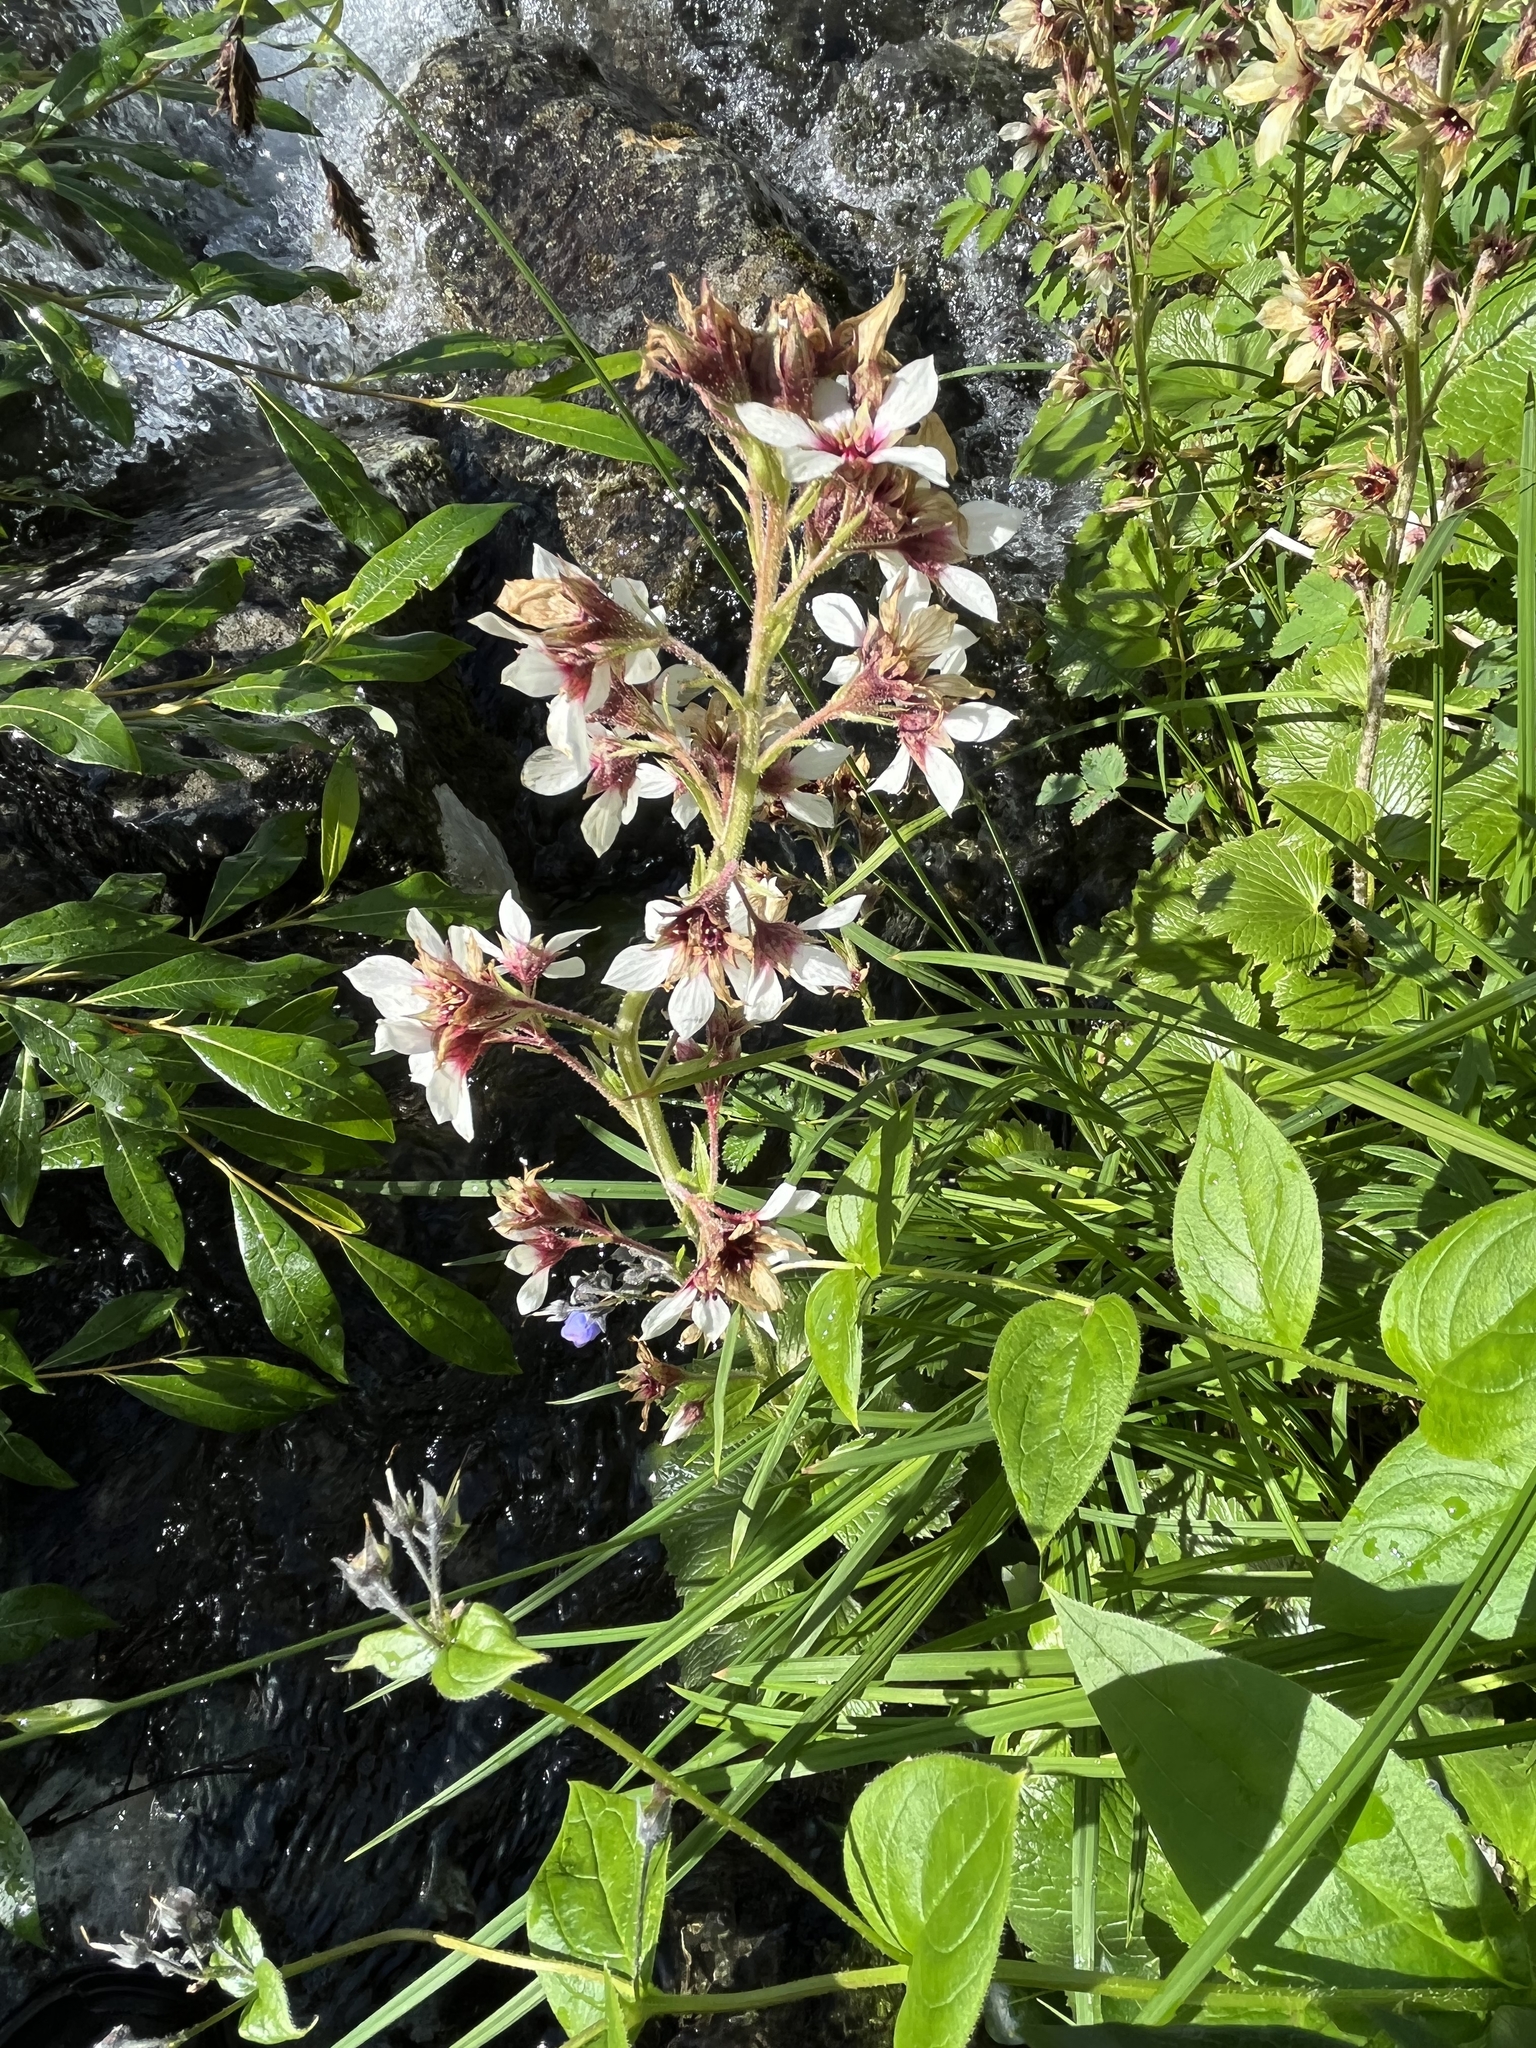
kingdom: Plantae
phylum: Tracheophyta
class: Magnoliopsida
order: Saxifragales
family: Saxifragaceae
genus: Boykinia
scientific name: Boykinia richardsonii
